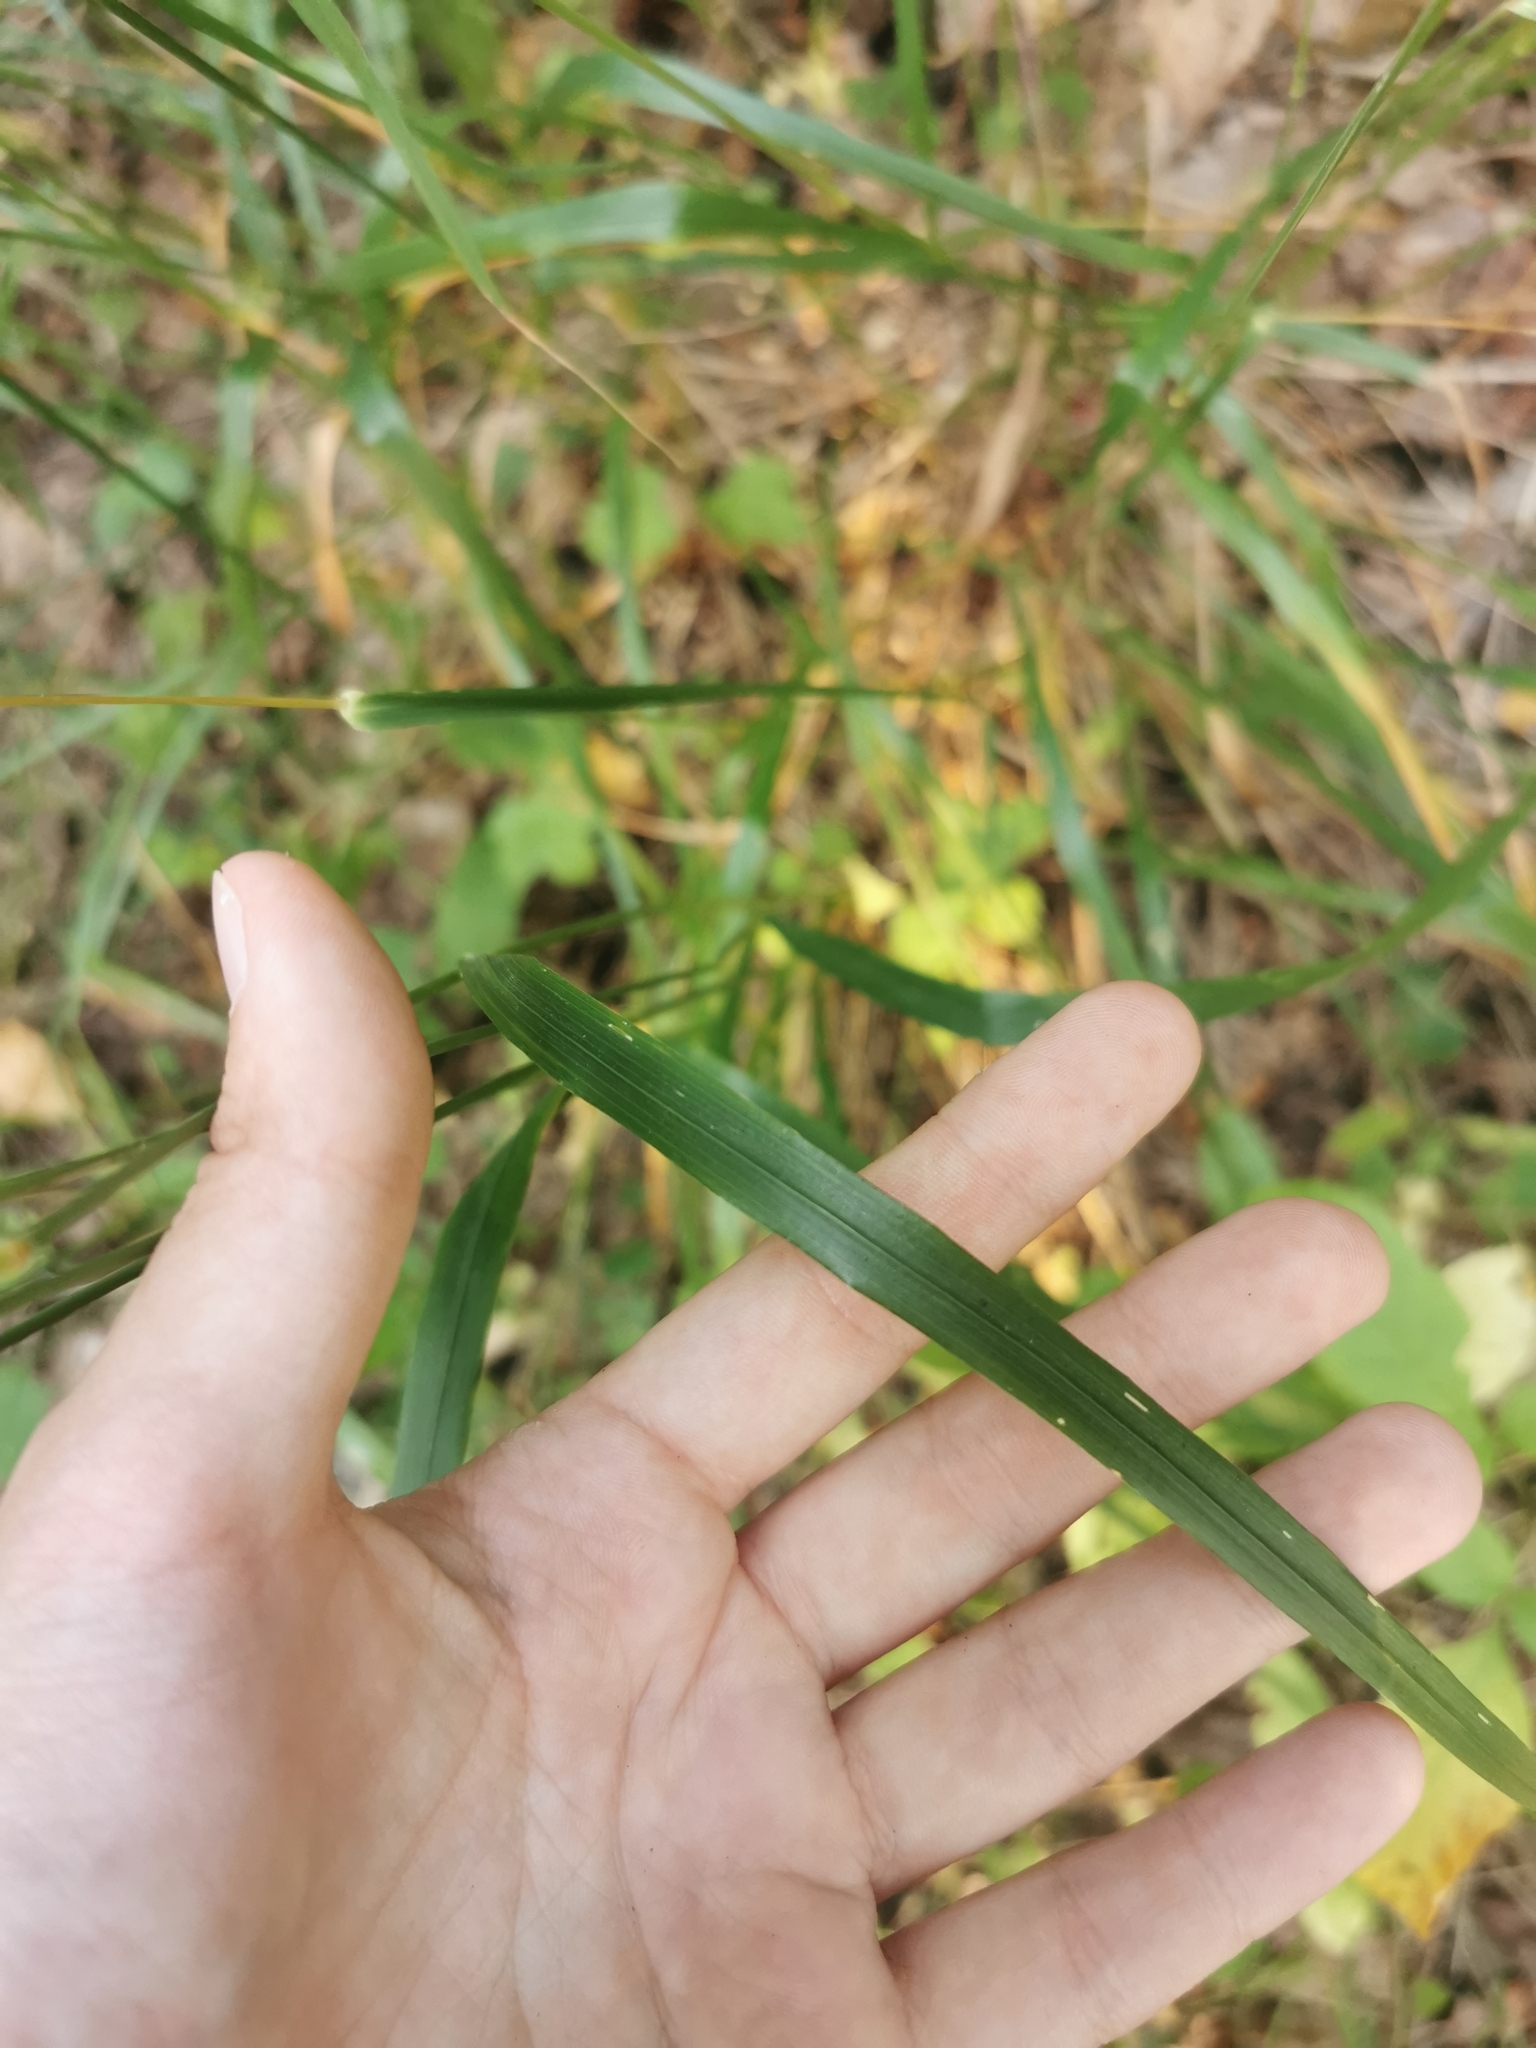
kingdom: Plantae
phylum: Tracheophyta
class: Liliopsida
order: Poales
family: Poaceae
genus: Calamagrostis
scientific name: Calamagrostis arundinacea
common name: Metskastik
